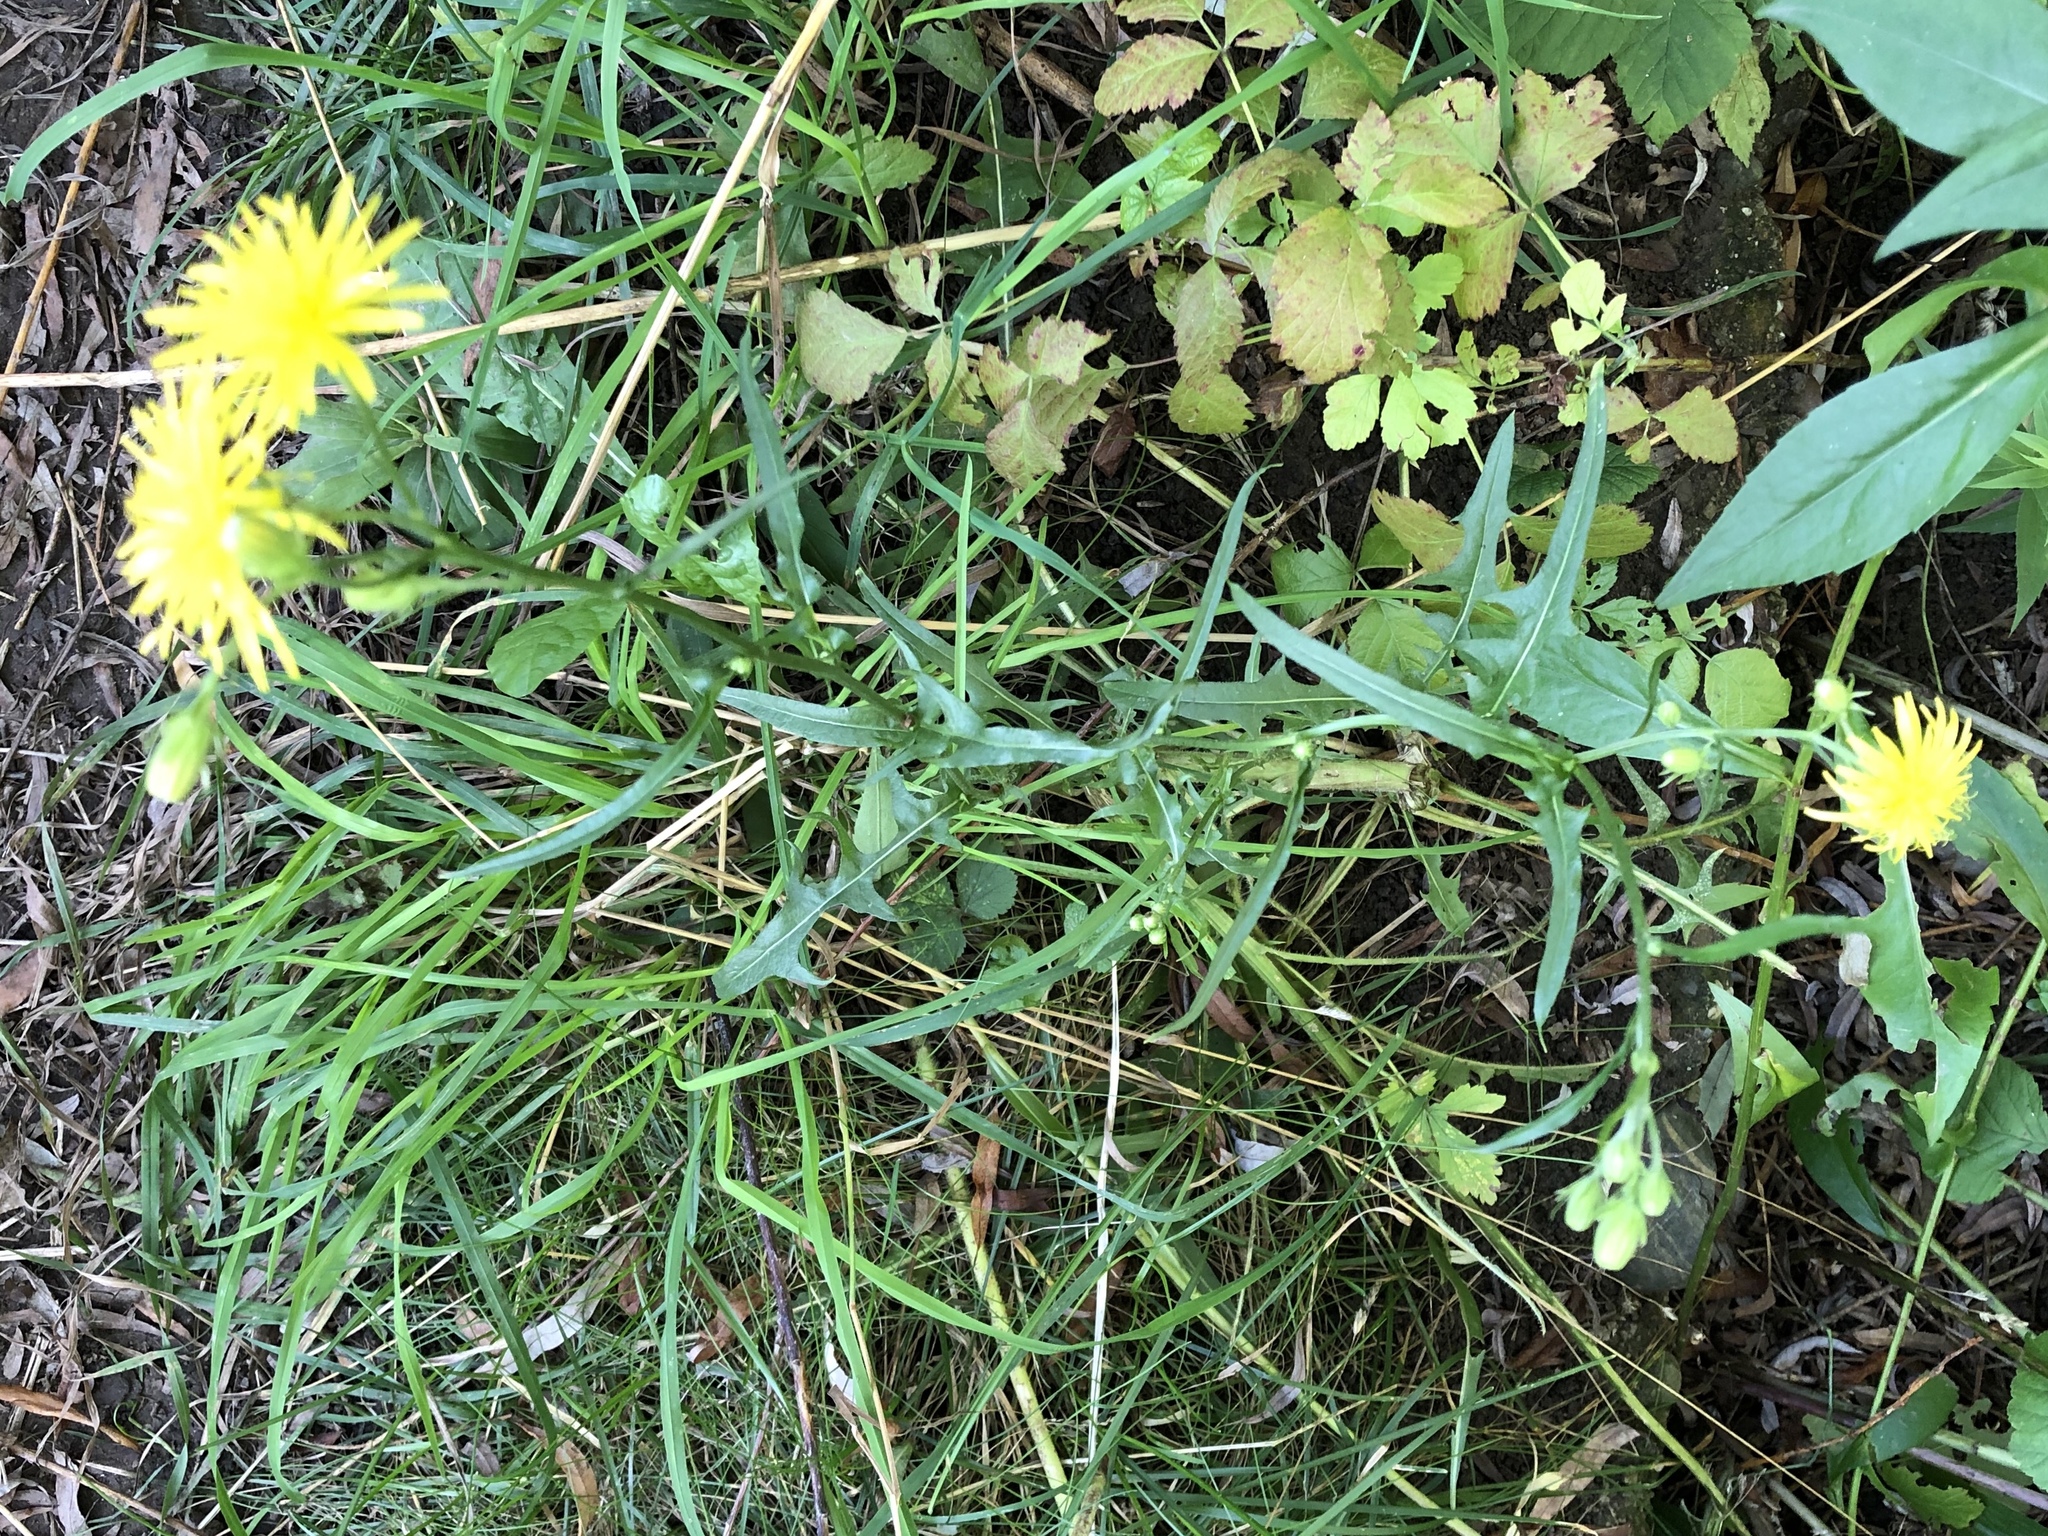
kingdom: Plantae
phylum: Tracheophyta
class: Magnoliopsida
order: Asterales
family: Asteraceae
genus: Crepis
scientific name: Crepis biennis
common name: Rough hawk's-beard
